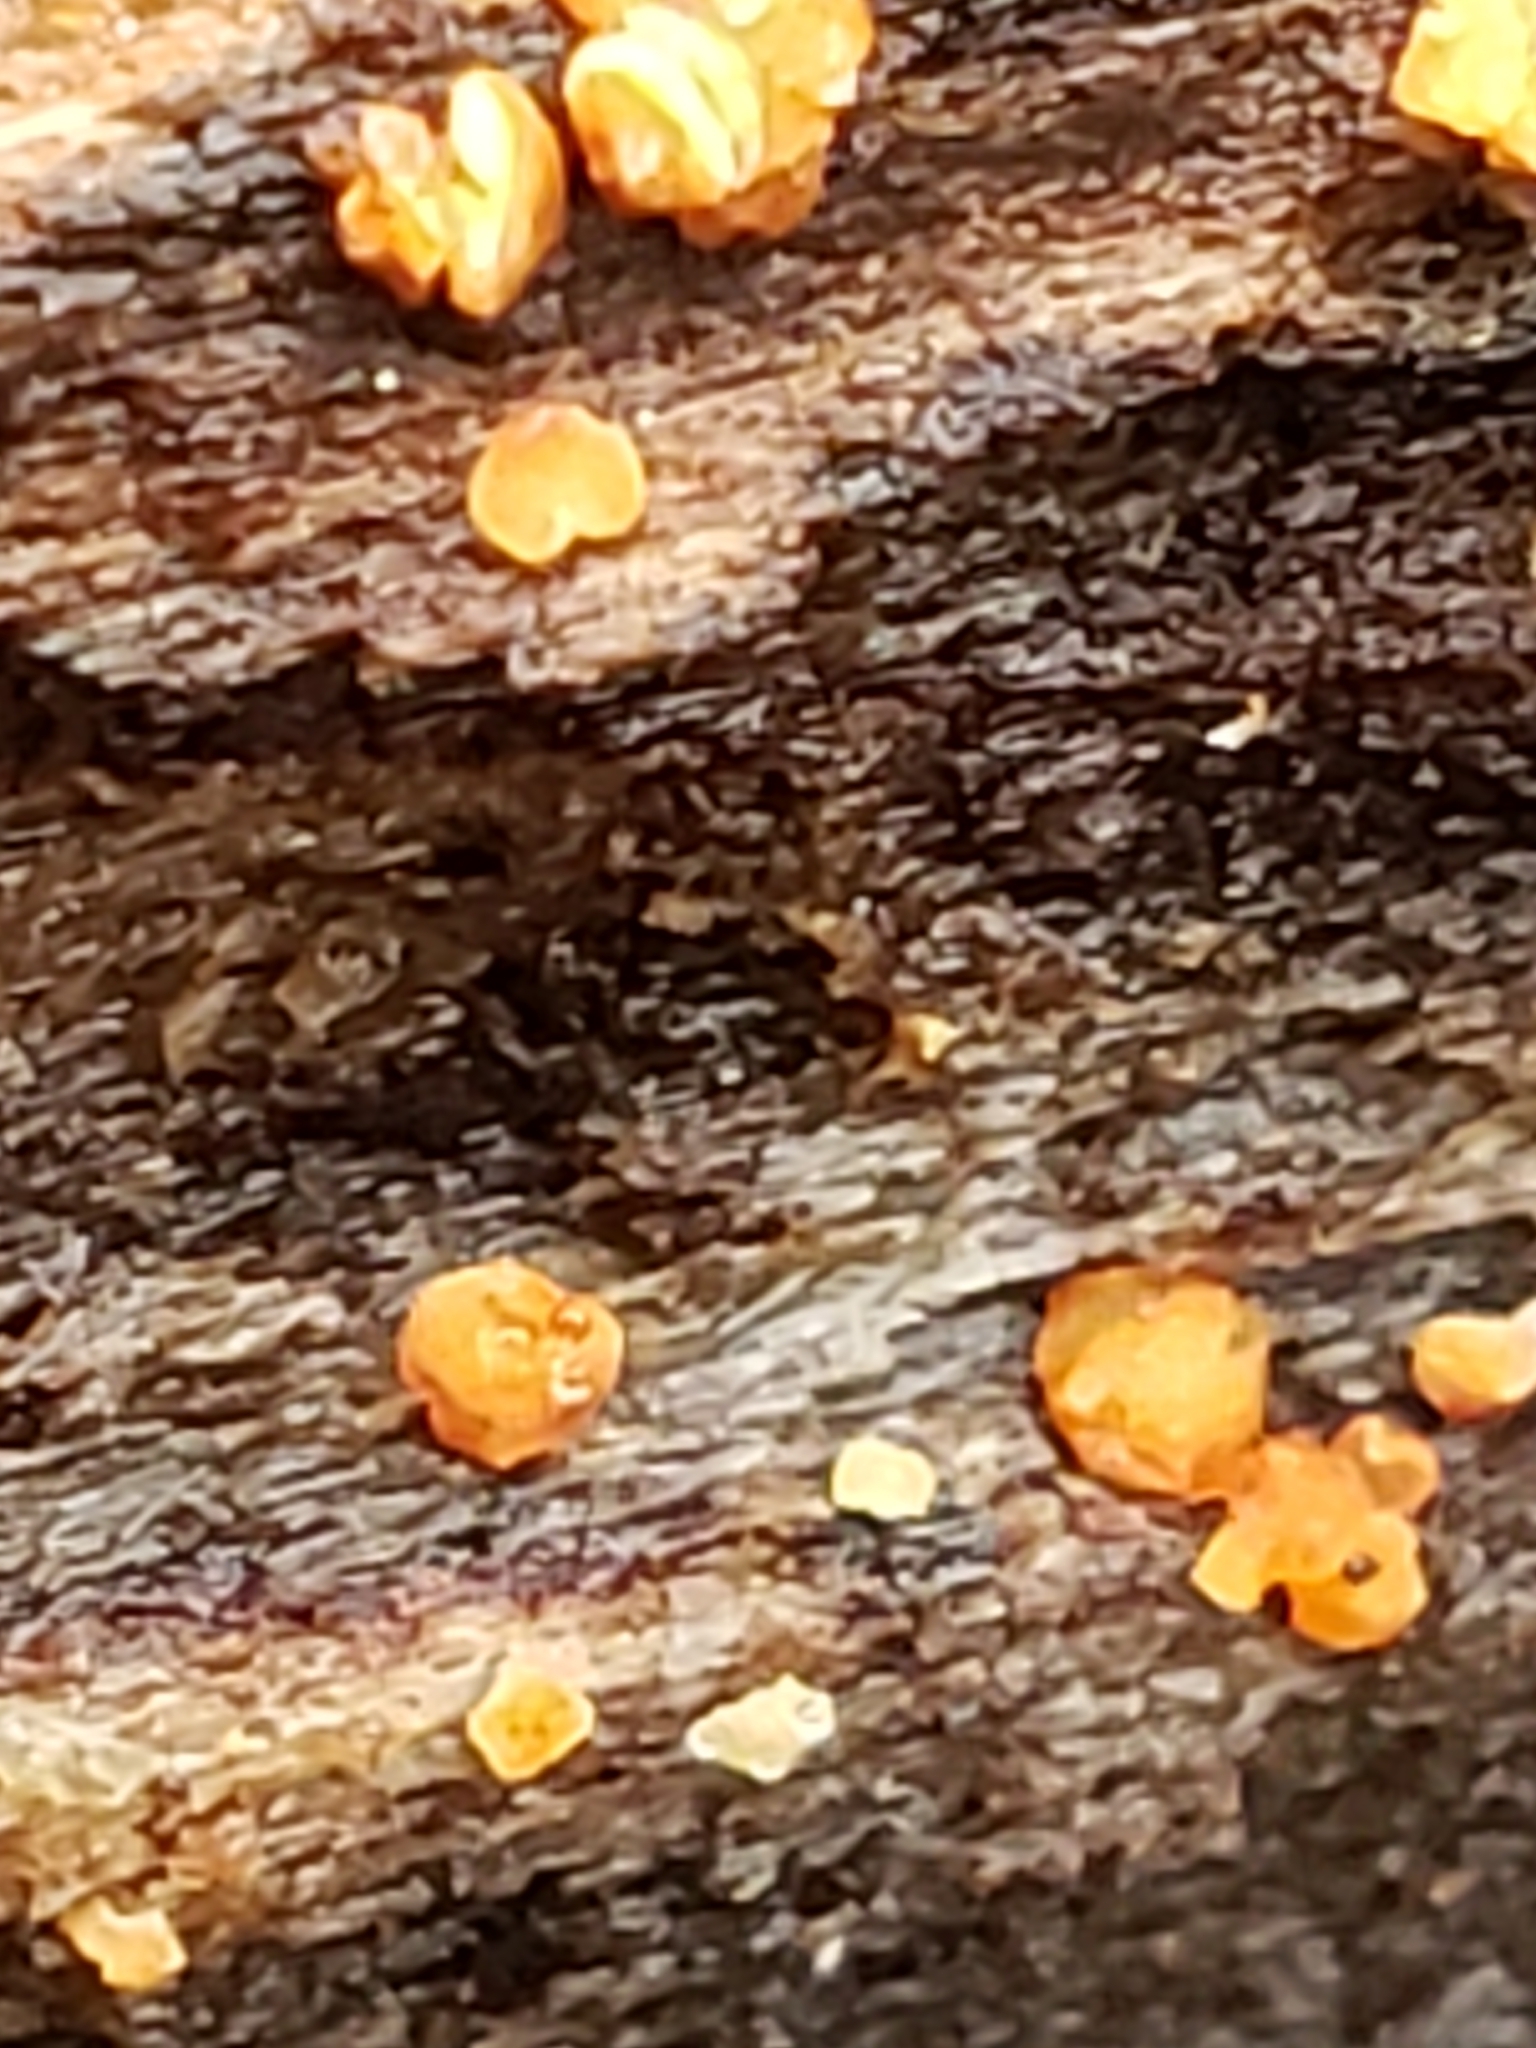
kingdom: Fungi
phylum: Basidiomycota
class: Dacrymycetes
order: Dacrymycetales
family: Dacrymycetaceae
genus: Dacrymyces
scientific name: Dacrymyces stillatus
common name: Common jelly spot
